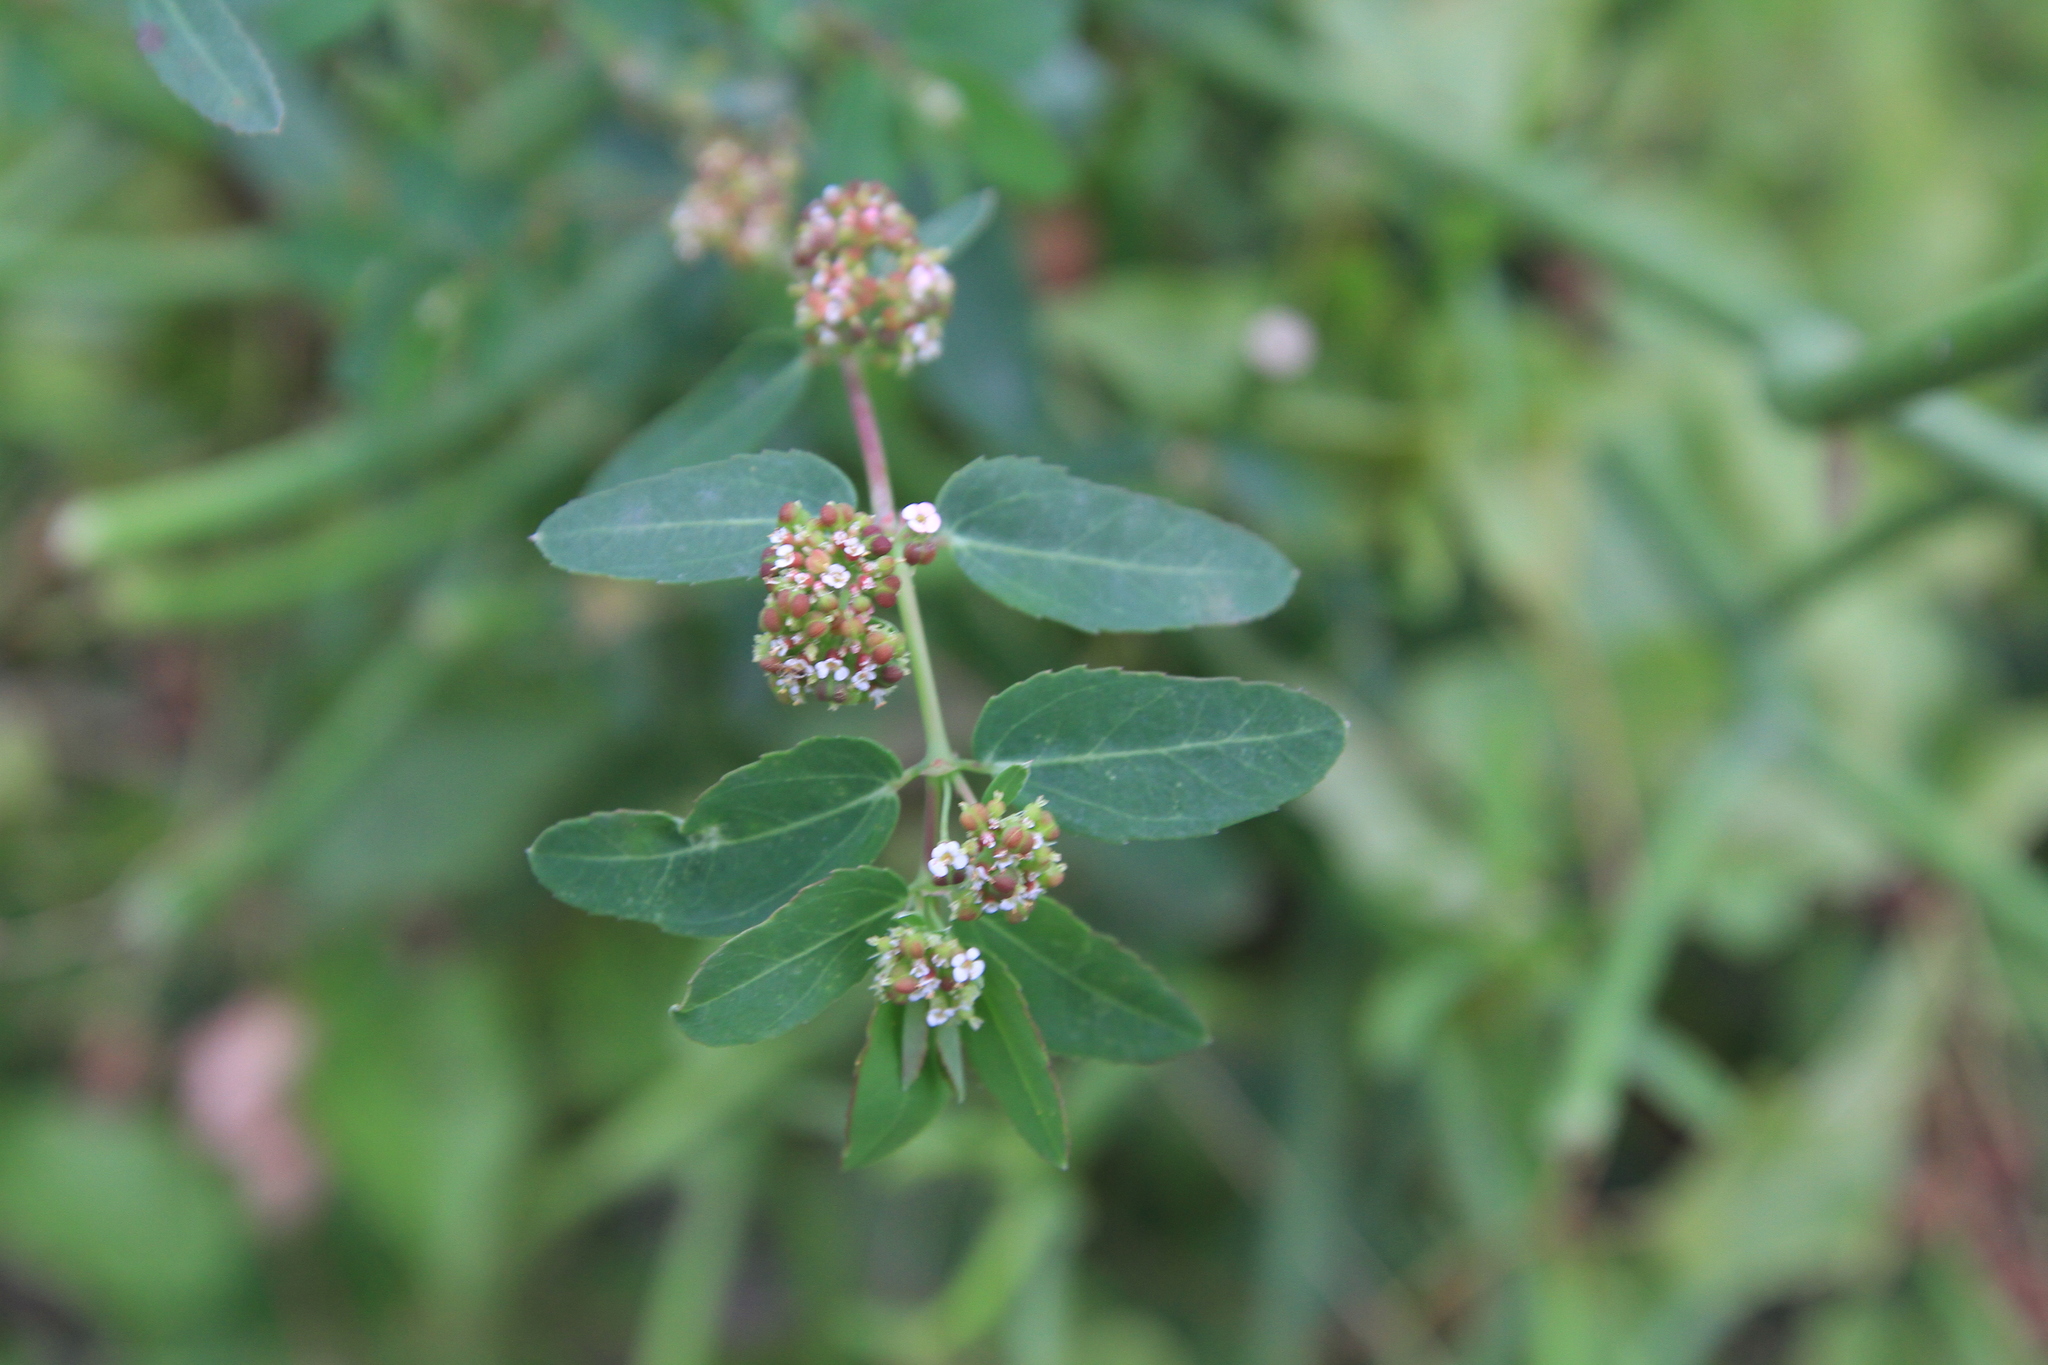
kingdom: Plantae
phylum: Tracheophyta
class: Magnoliopsida
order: Malpighiales
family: Euphorbiaceae
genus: Euphorbia
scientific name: Euphorbia hypericifolia
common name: Graceful sandmat
